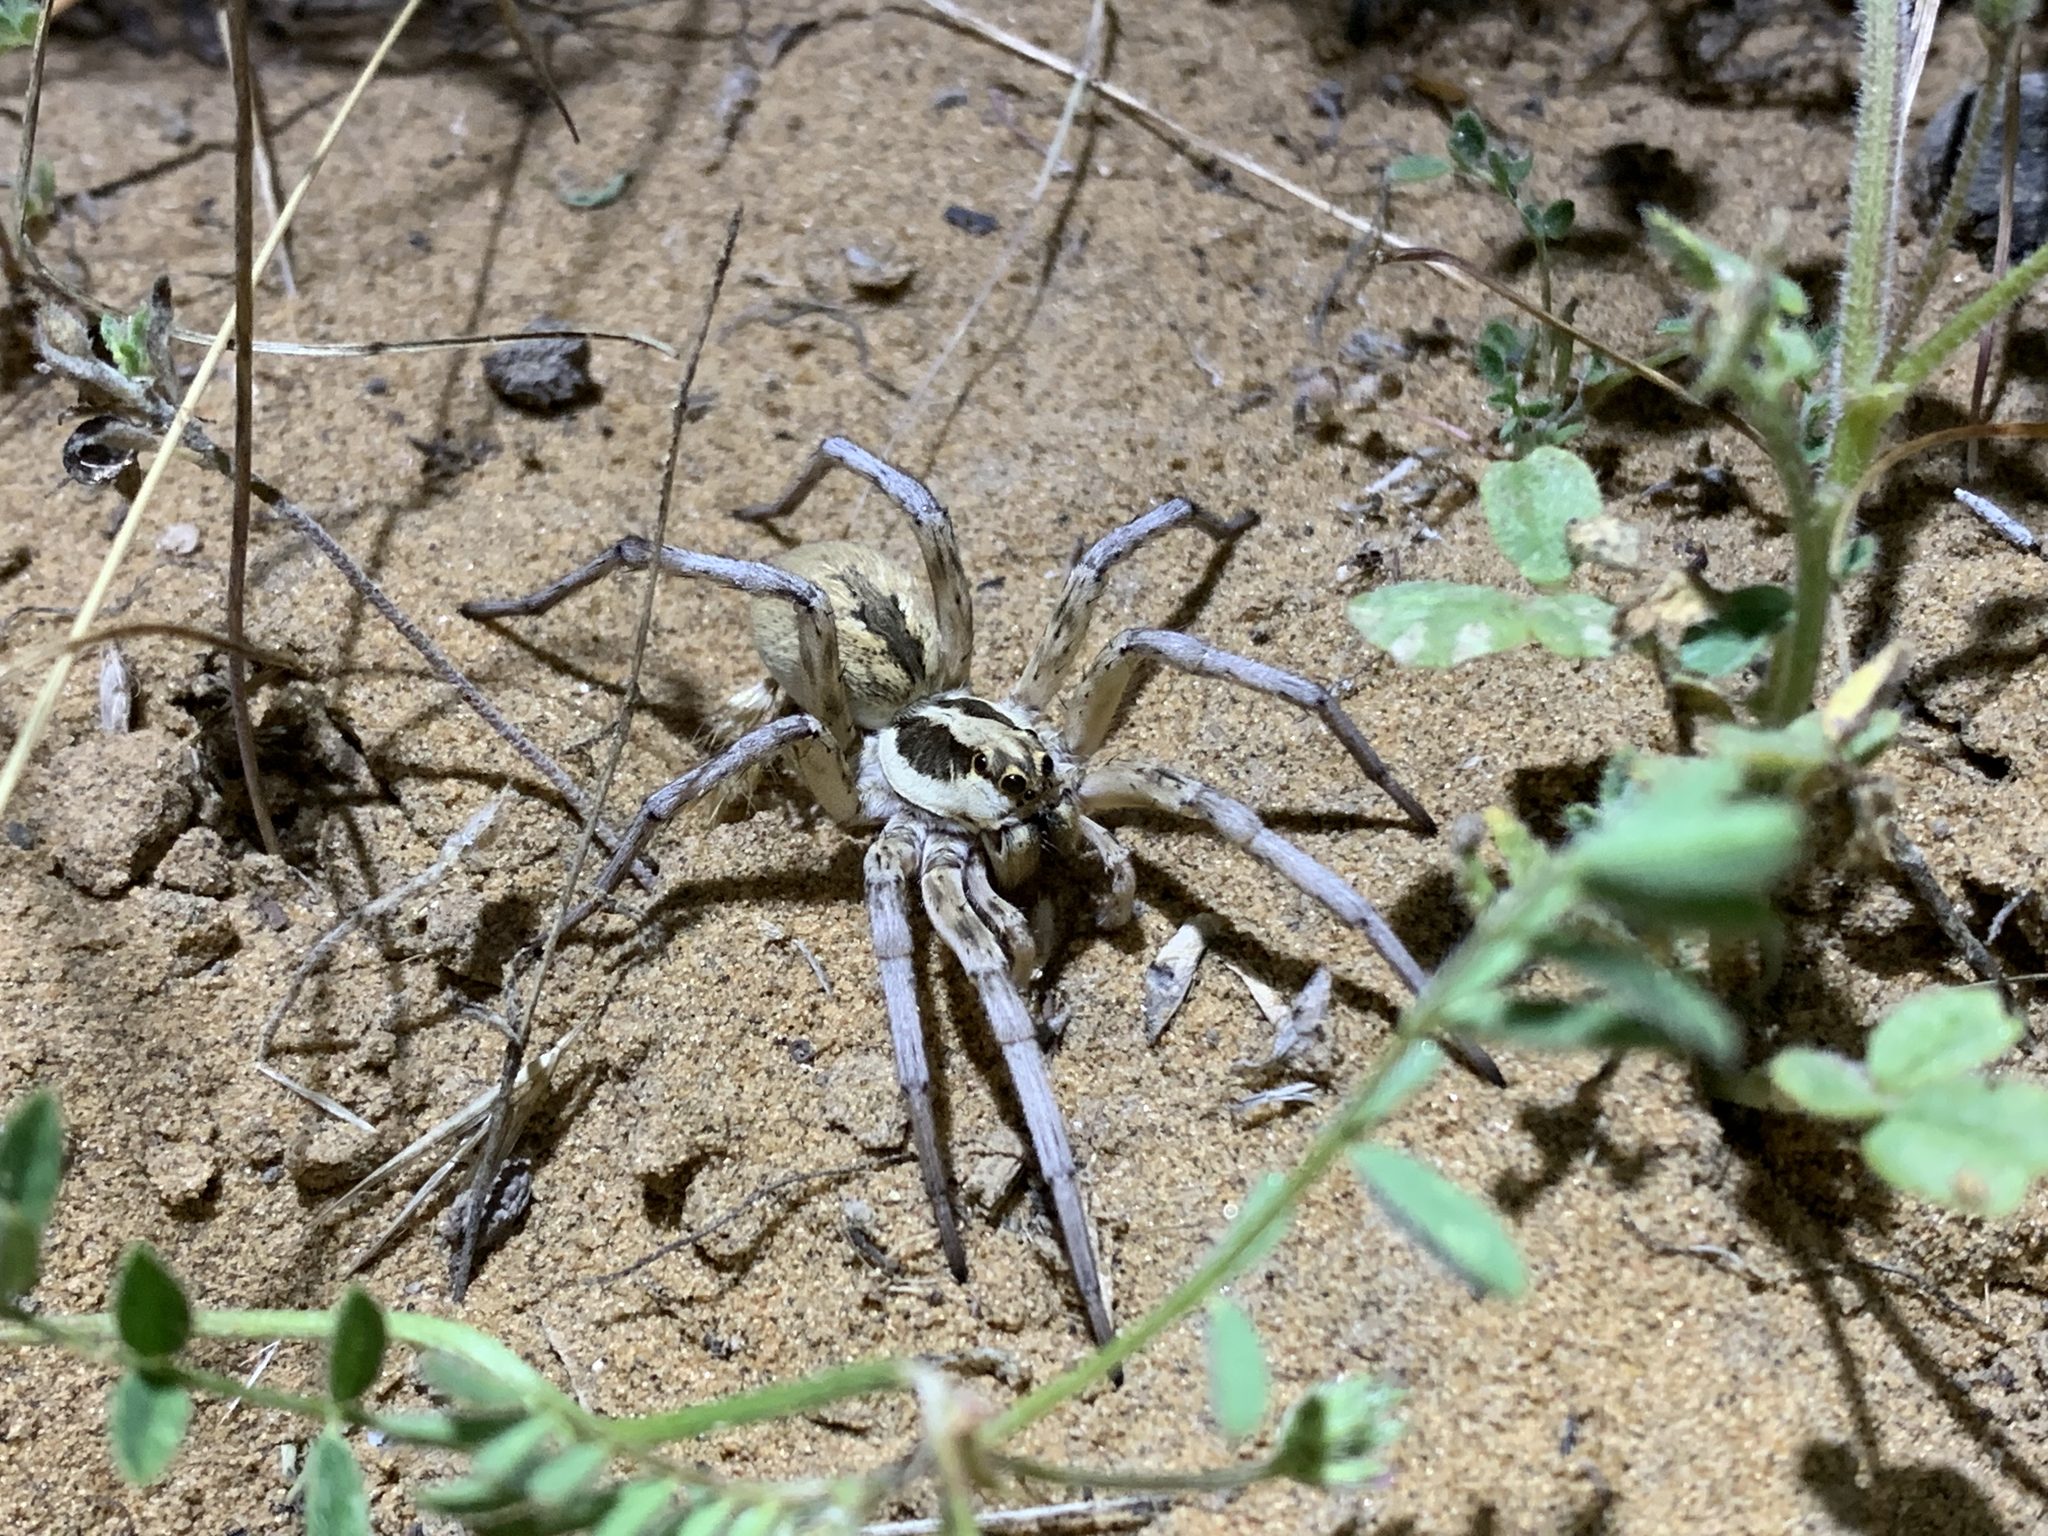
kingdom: Animalia
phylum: Arthropoda
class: Arachnida
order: Araneae
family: Lycosidae
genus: Karakumosa
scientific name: Karakumosa
